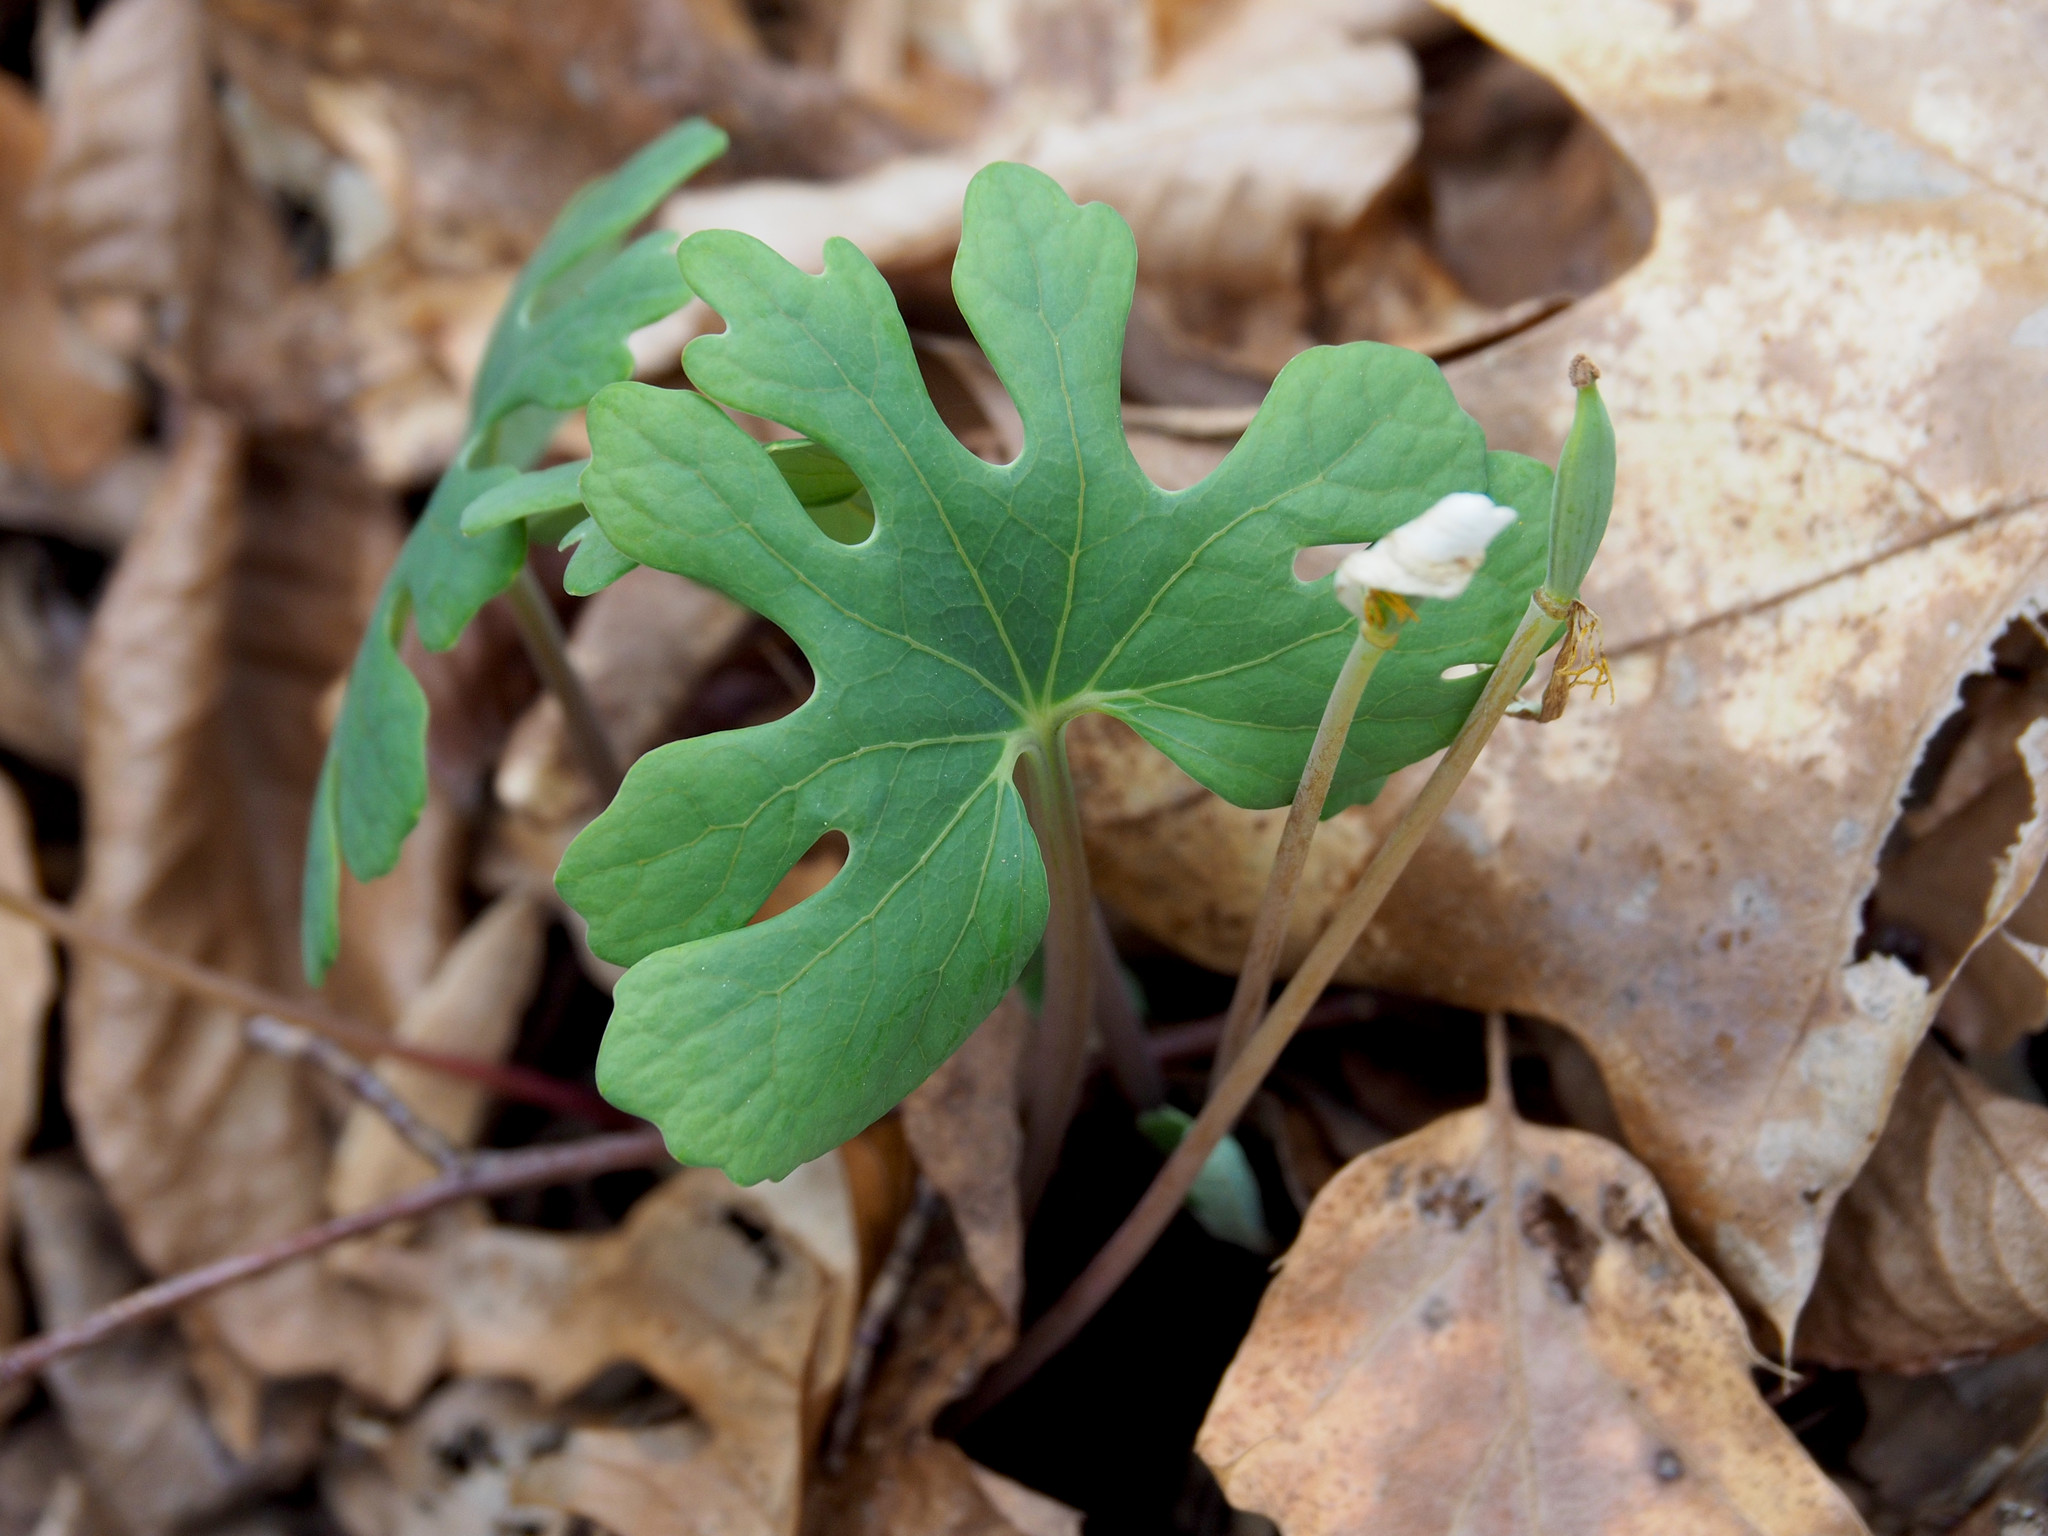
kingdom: Plantae
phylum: Tracheophyta
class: Magnoliopsida
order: Ranunculales
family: Papaveraceae
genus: Sanguinaria
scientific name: Sanguinaria canadensis
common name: Bloodroot
